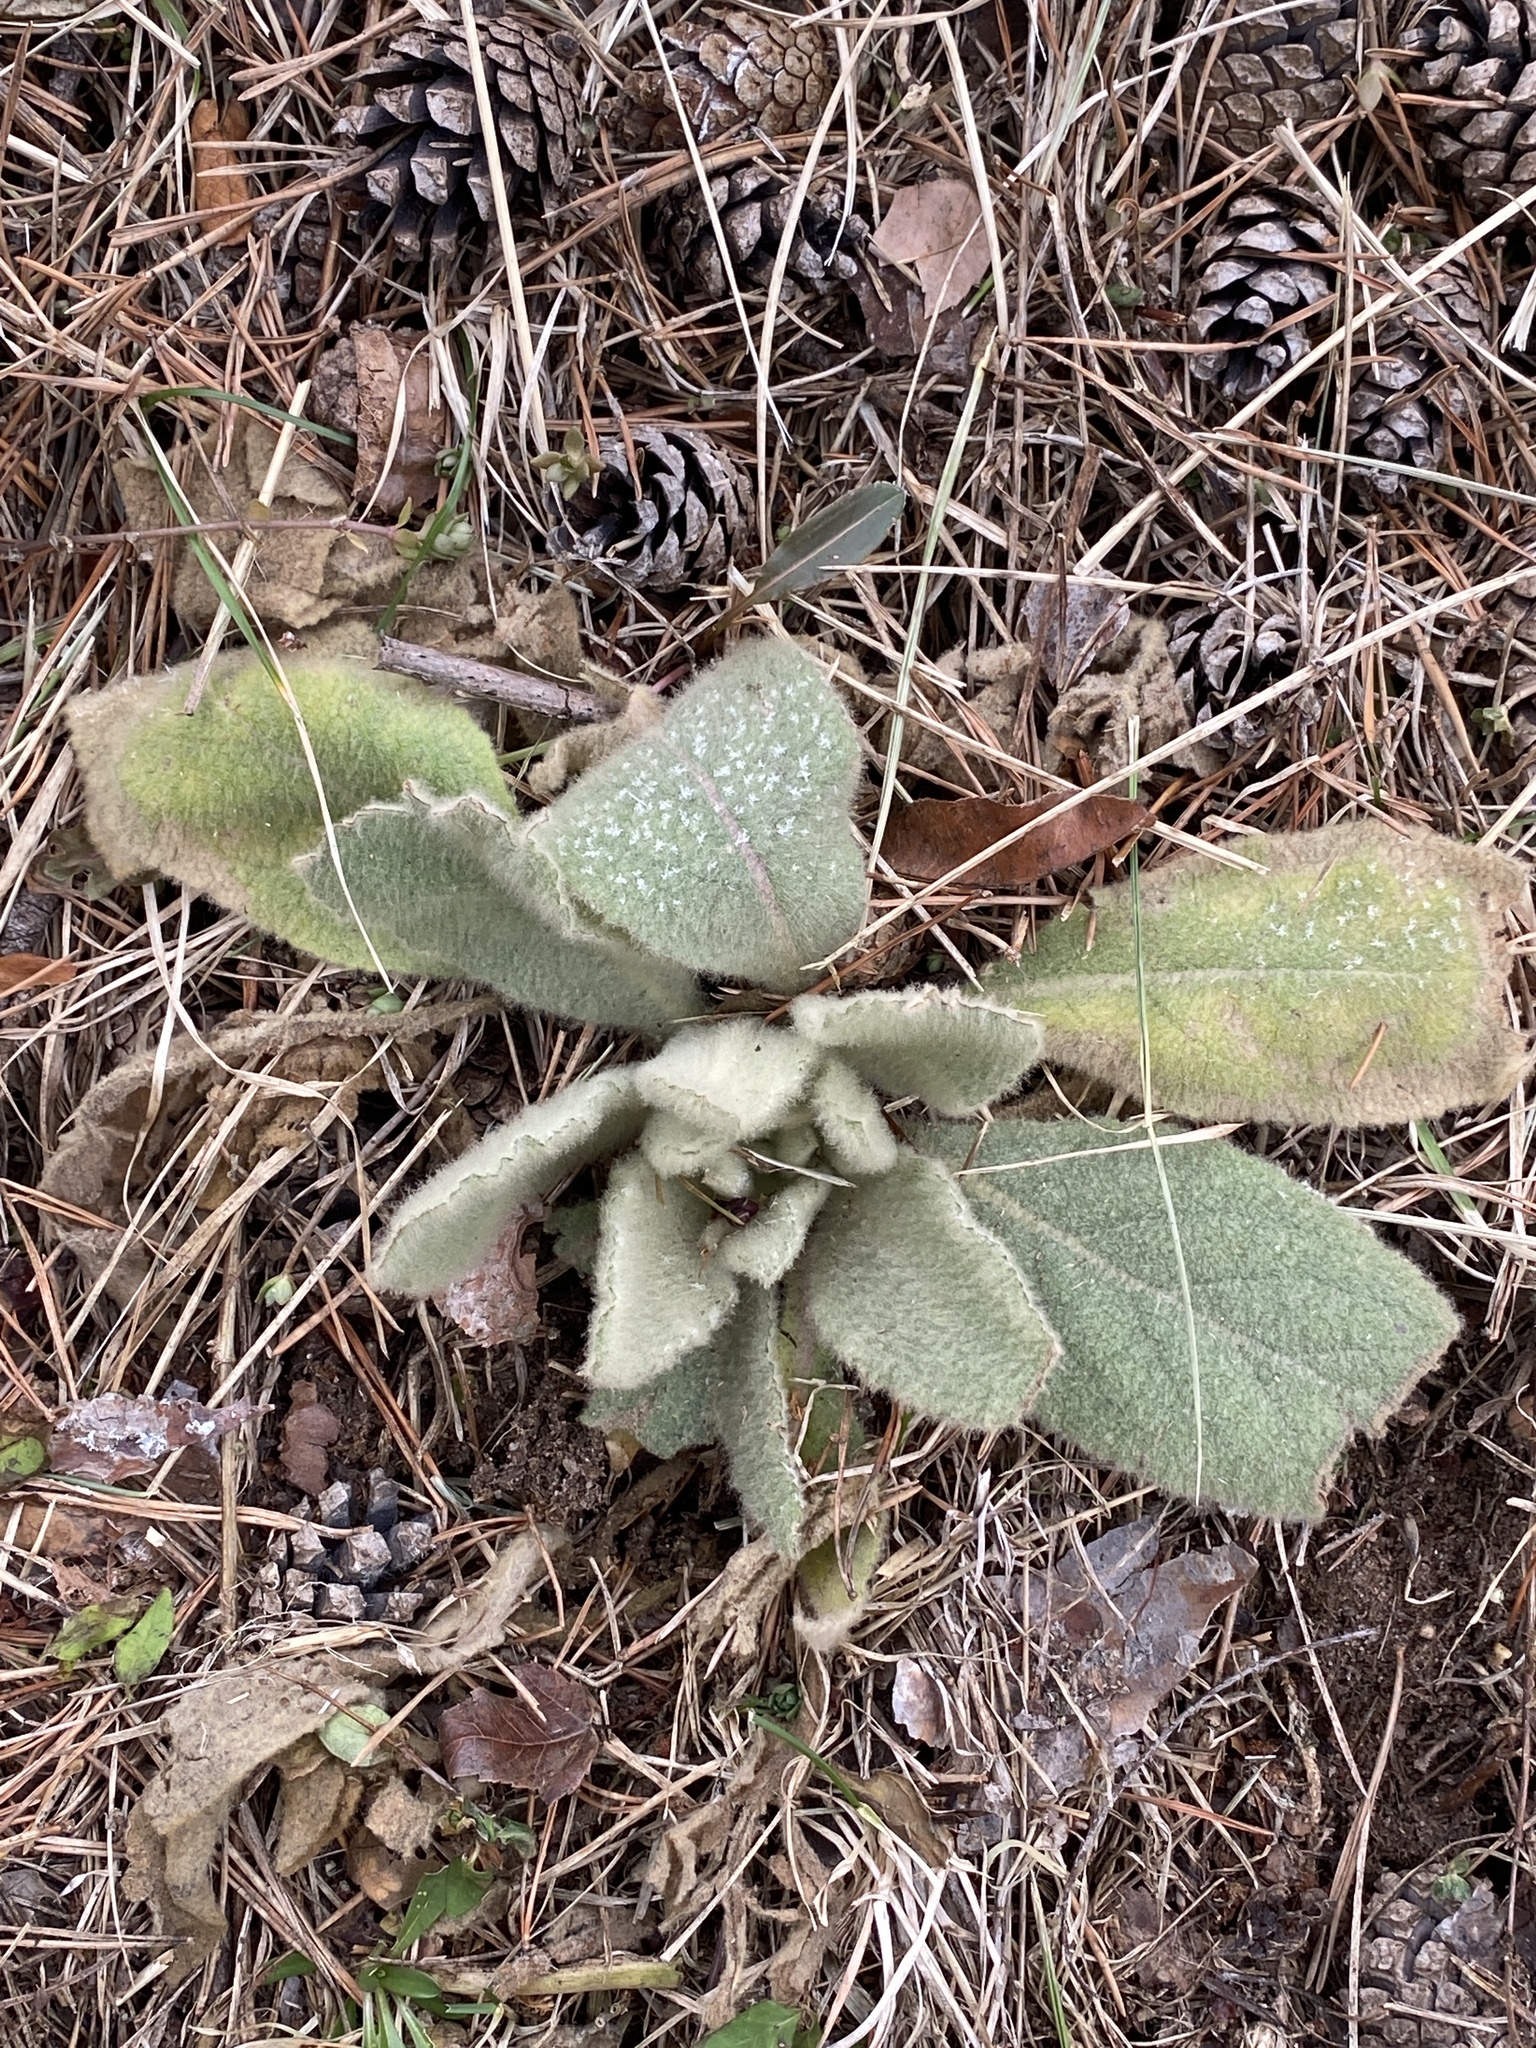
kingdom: Plantae
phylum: Tracheophyta
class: Magnoliopsida
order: Lamiales
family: Scrophulariaceae
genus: Verbascum
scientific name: Verbascum thapsus
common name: Common mullein
